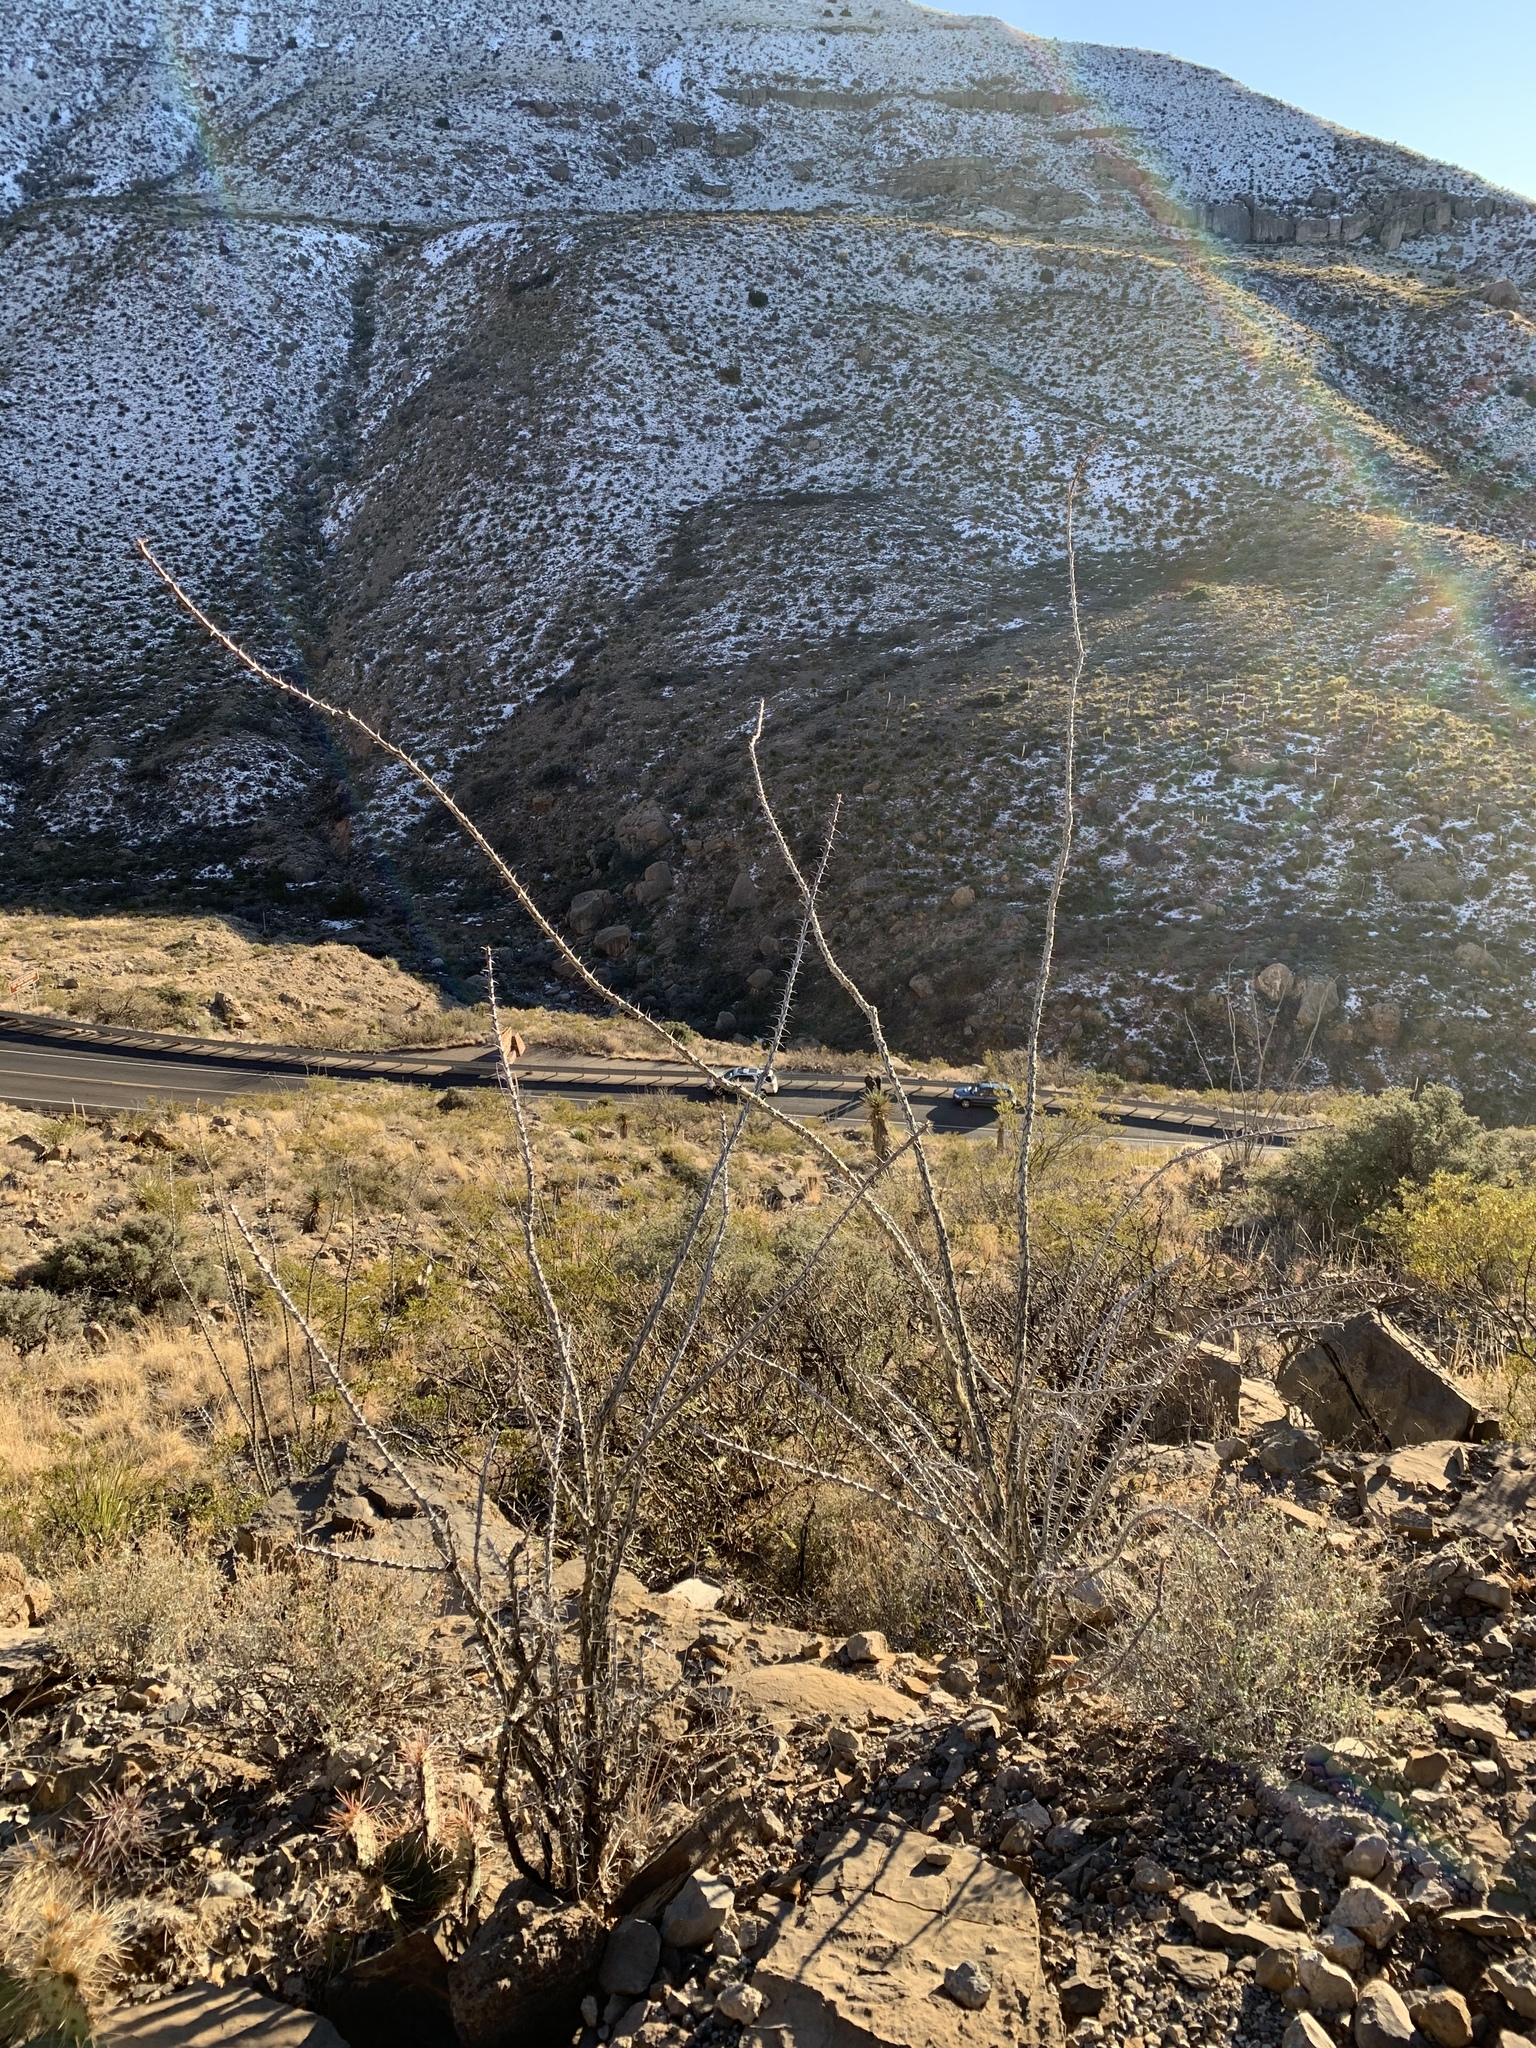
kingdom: Plantae
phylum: Tracheophyta
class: Magnoliopsida
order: Ericales
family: Fouquieriaceae
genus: Fouquieria
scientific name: Fouquieria splendens
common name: Vine-cactus
